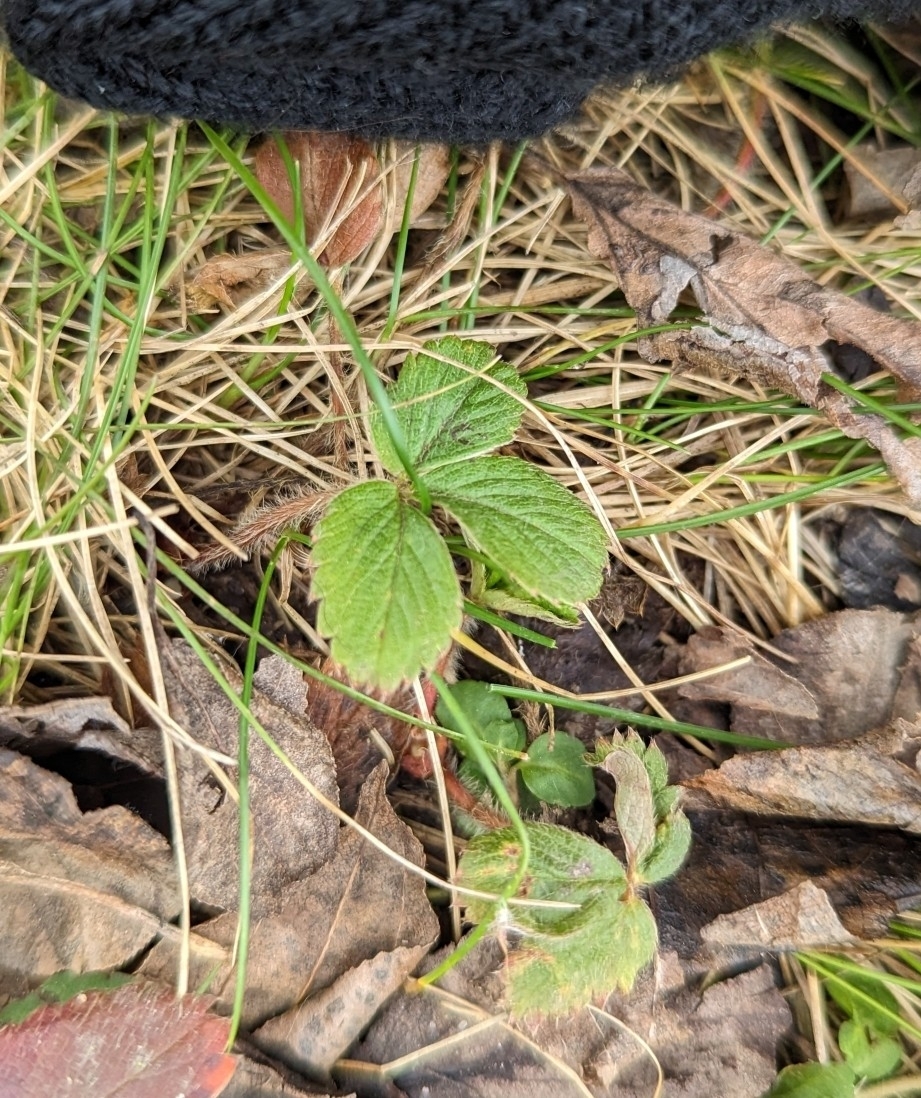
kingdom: Plantae
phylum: Tracheophyta
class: Magnoliopsida
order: Rosales
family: Rosaceae
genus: Fragaria
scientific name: Fragaria virginiana
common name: Thickleaved wild strawberry
